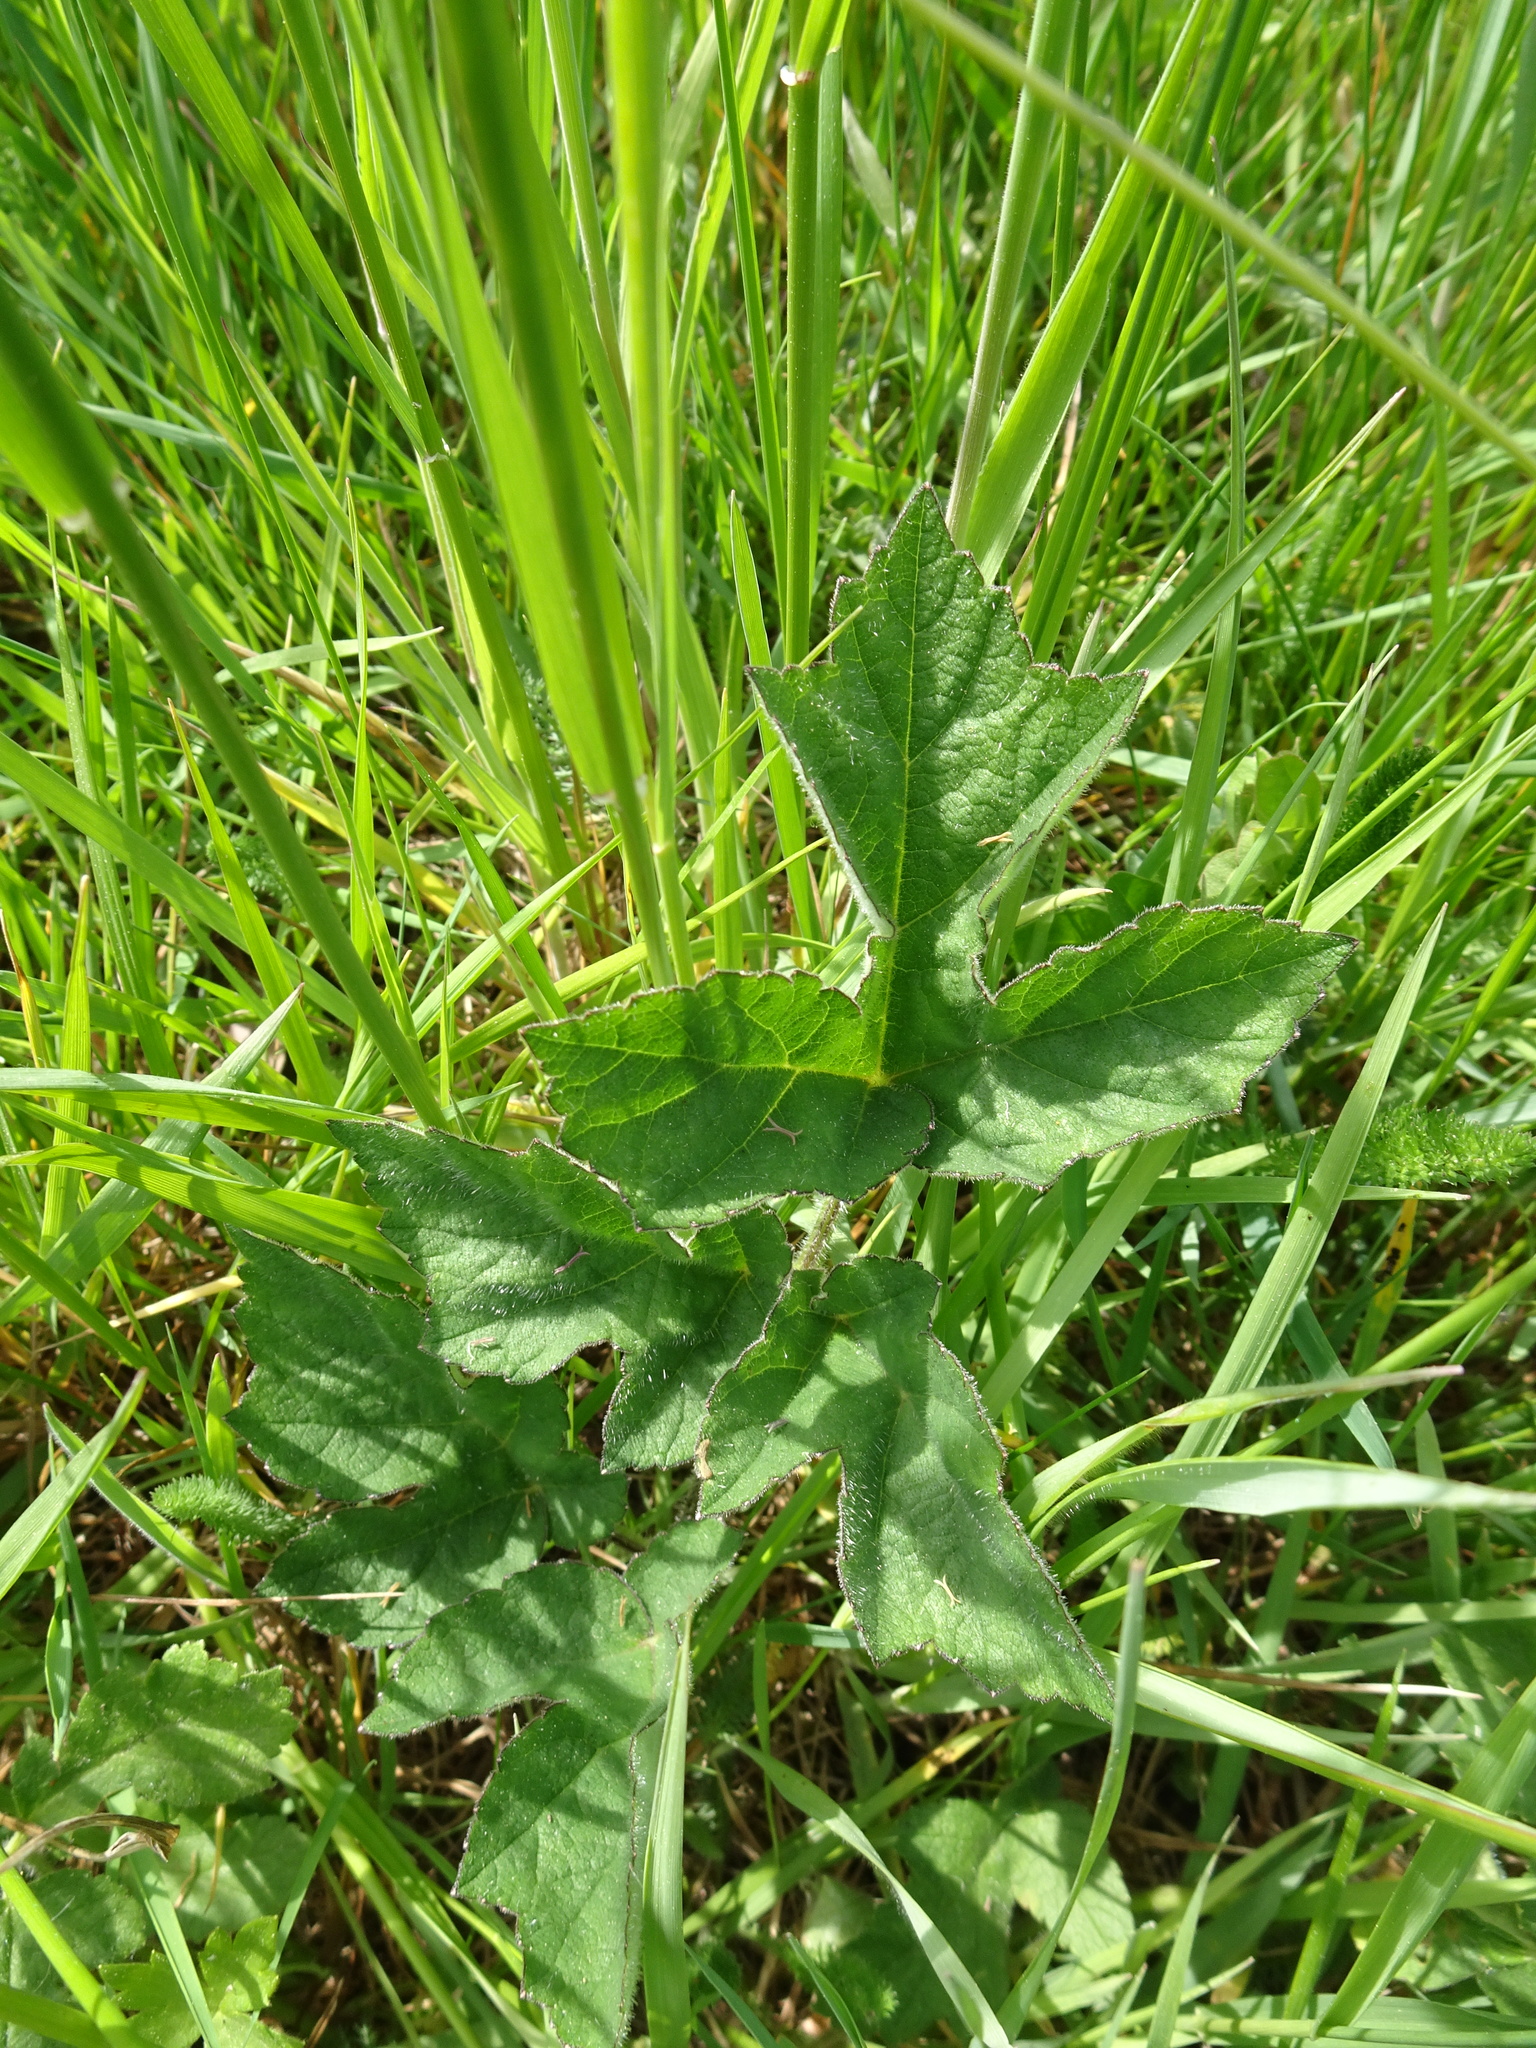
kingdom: Plantae
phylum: Tracheophyta
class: Magnoliopsida
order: Apiales
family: Apiaceae
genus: Heracleum
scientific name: Heracleum sphondylium
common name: Hogweed
